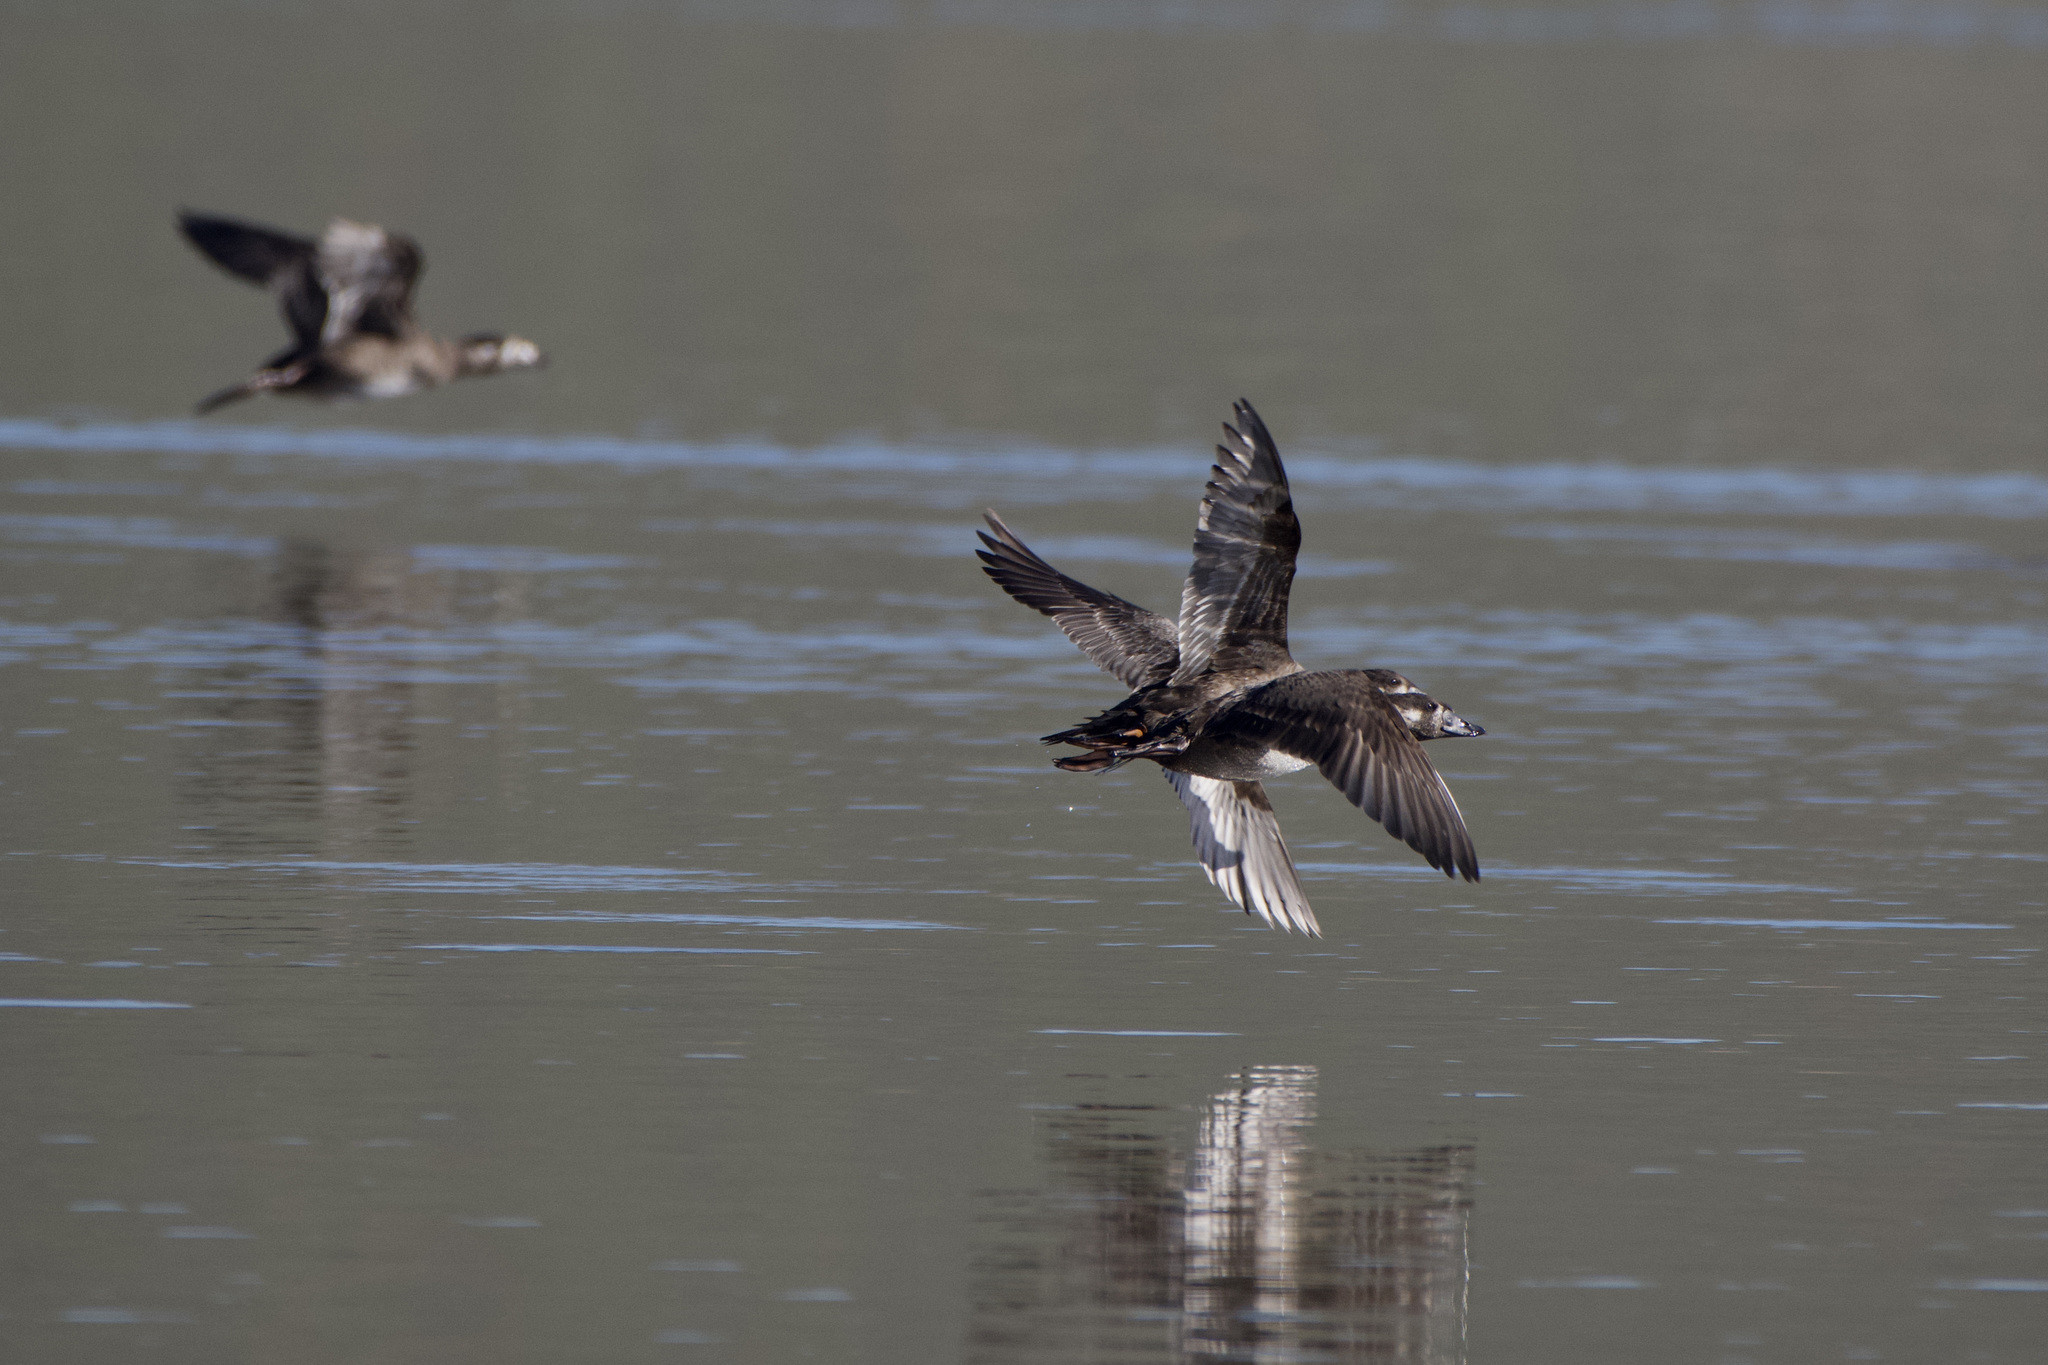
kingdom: Animalia
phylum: Chordata
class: Aves
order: Anseriformes
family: Anatidae
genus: Melanitta
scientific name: Melanitta perspicillata
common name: Surf scoter
